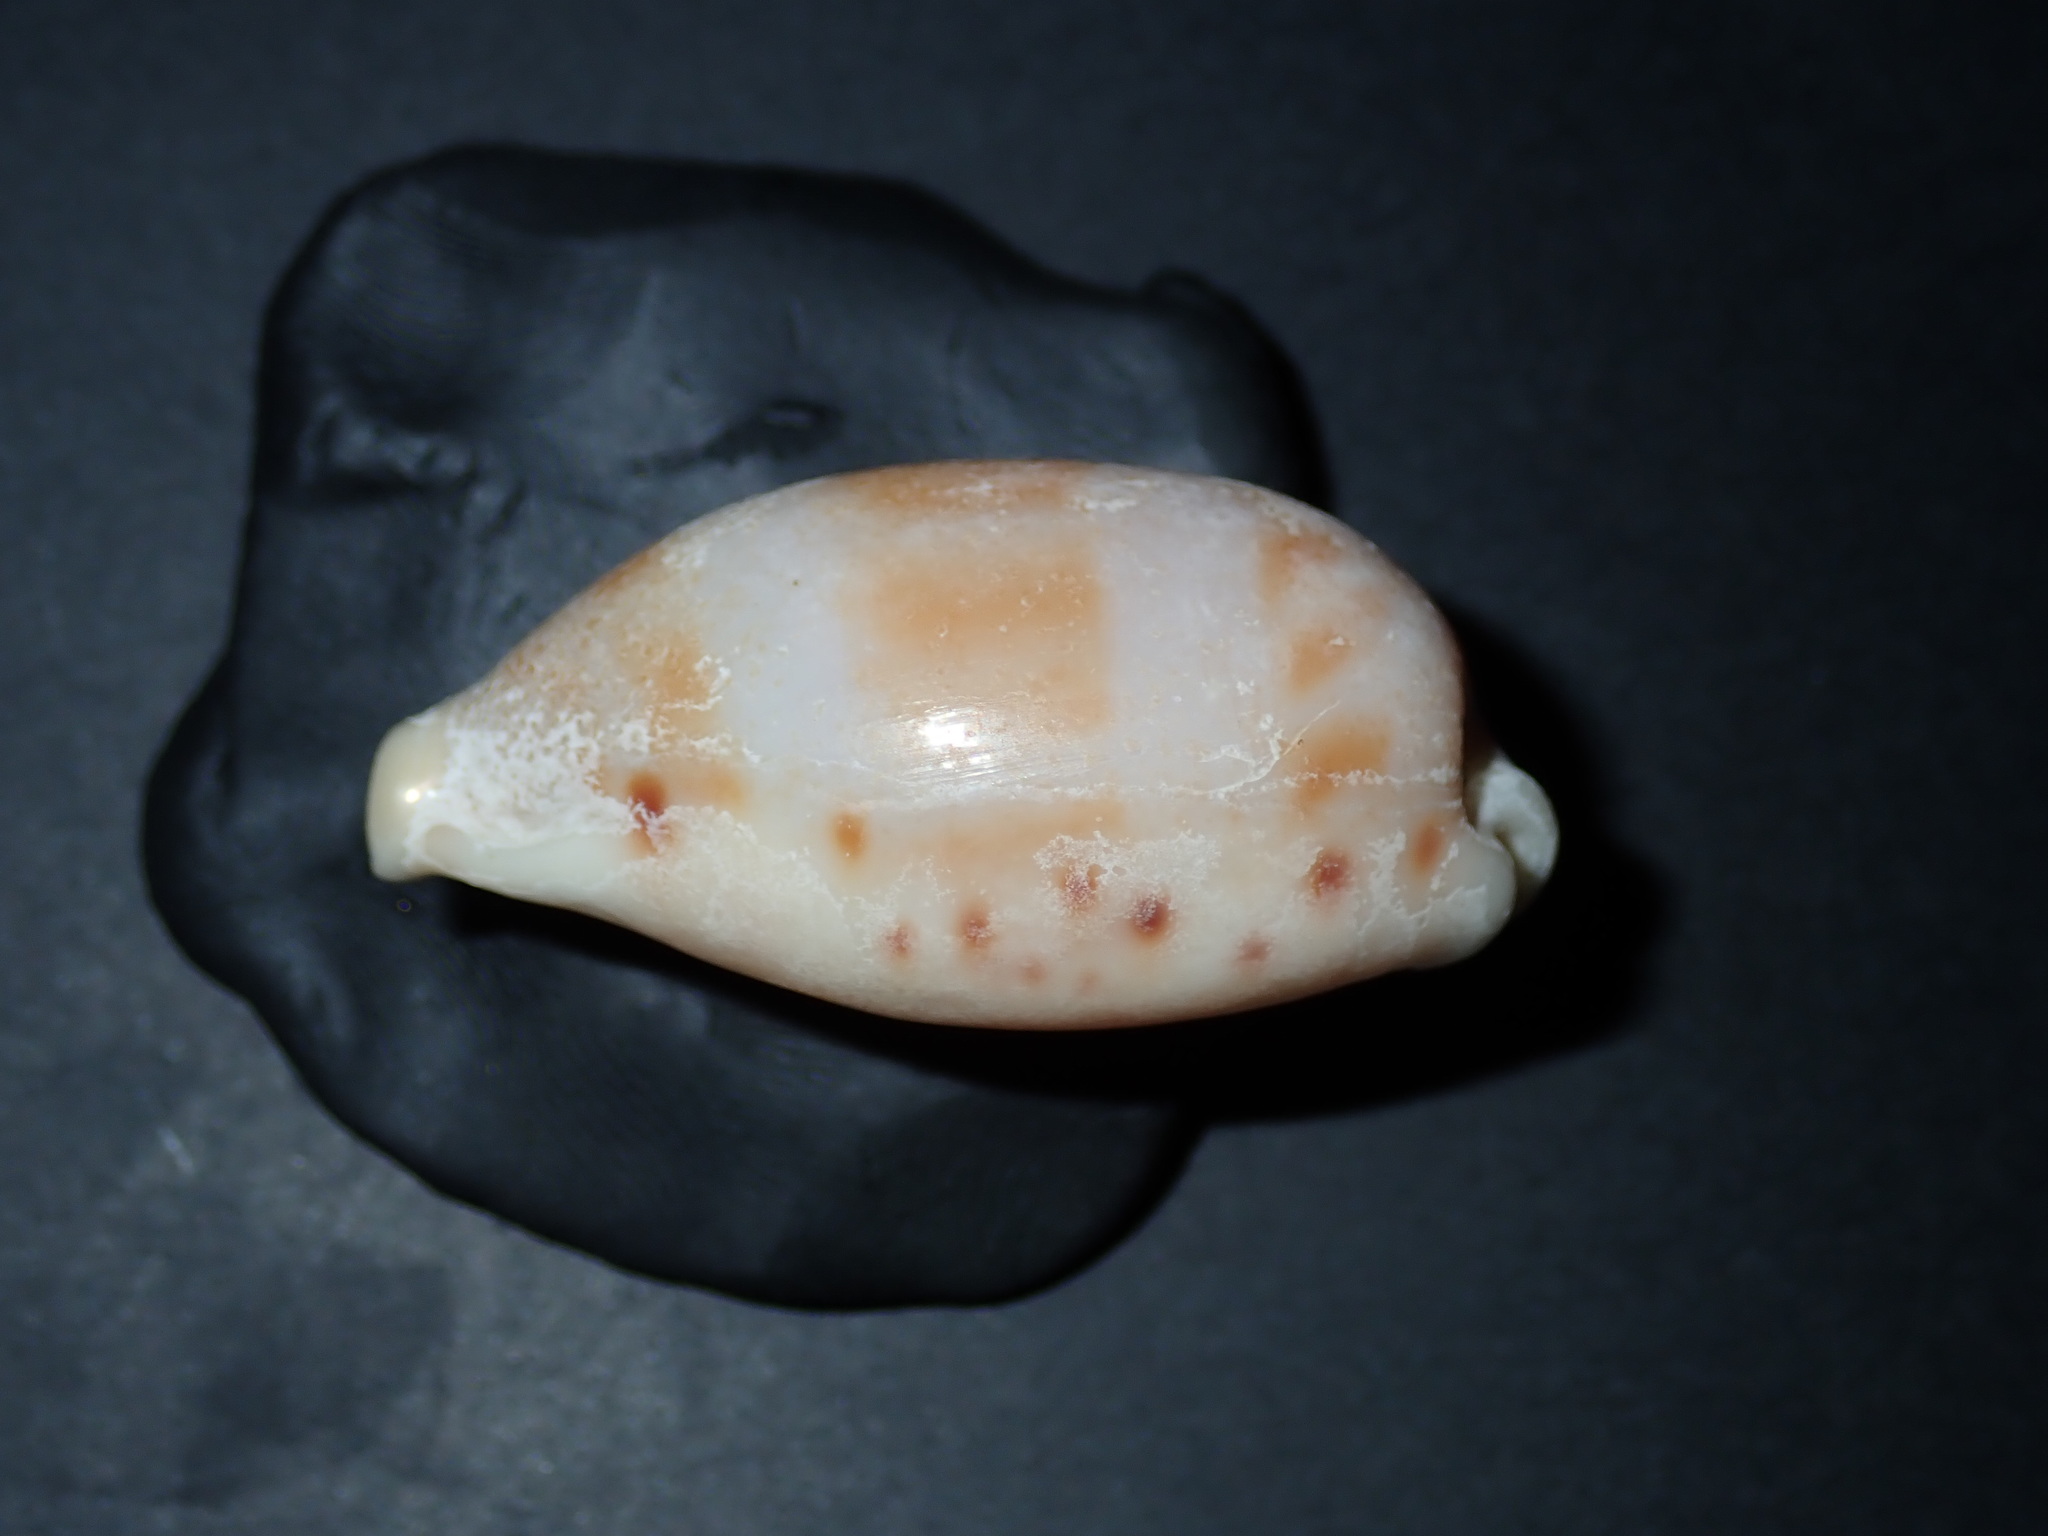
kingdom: Animalia
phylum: Mollusca
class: Gastropoda
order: Littorinimorpha
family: Cypraeidae
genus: Erronea
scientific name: Erronea caurica
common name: Thick-edged cowry
